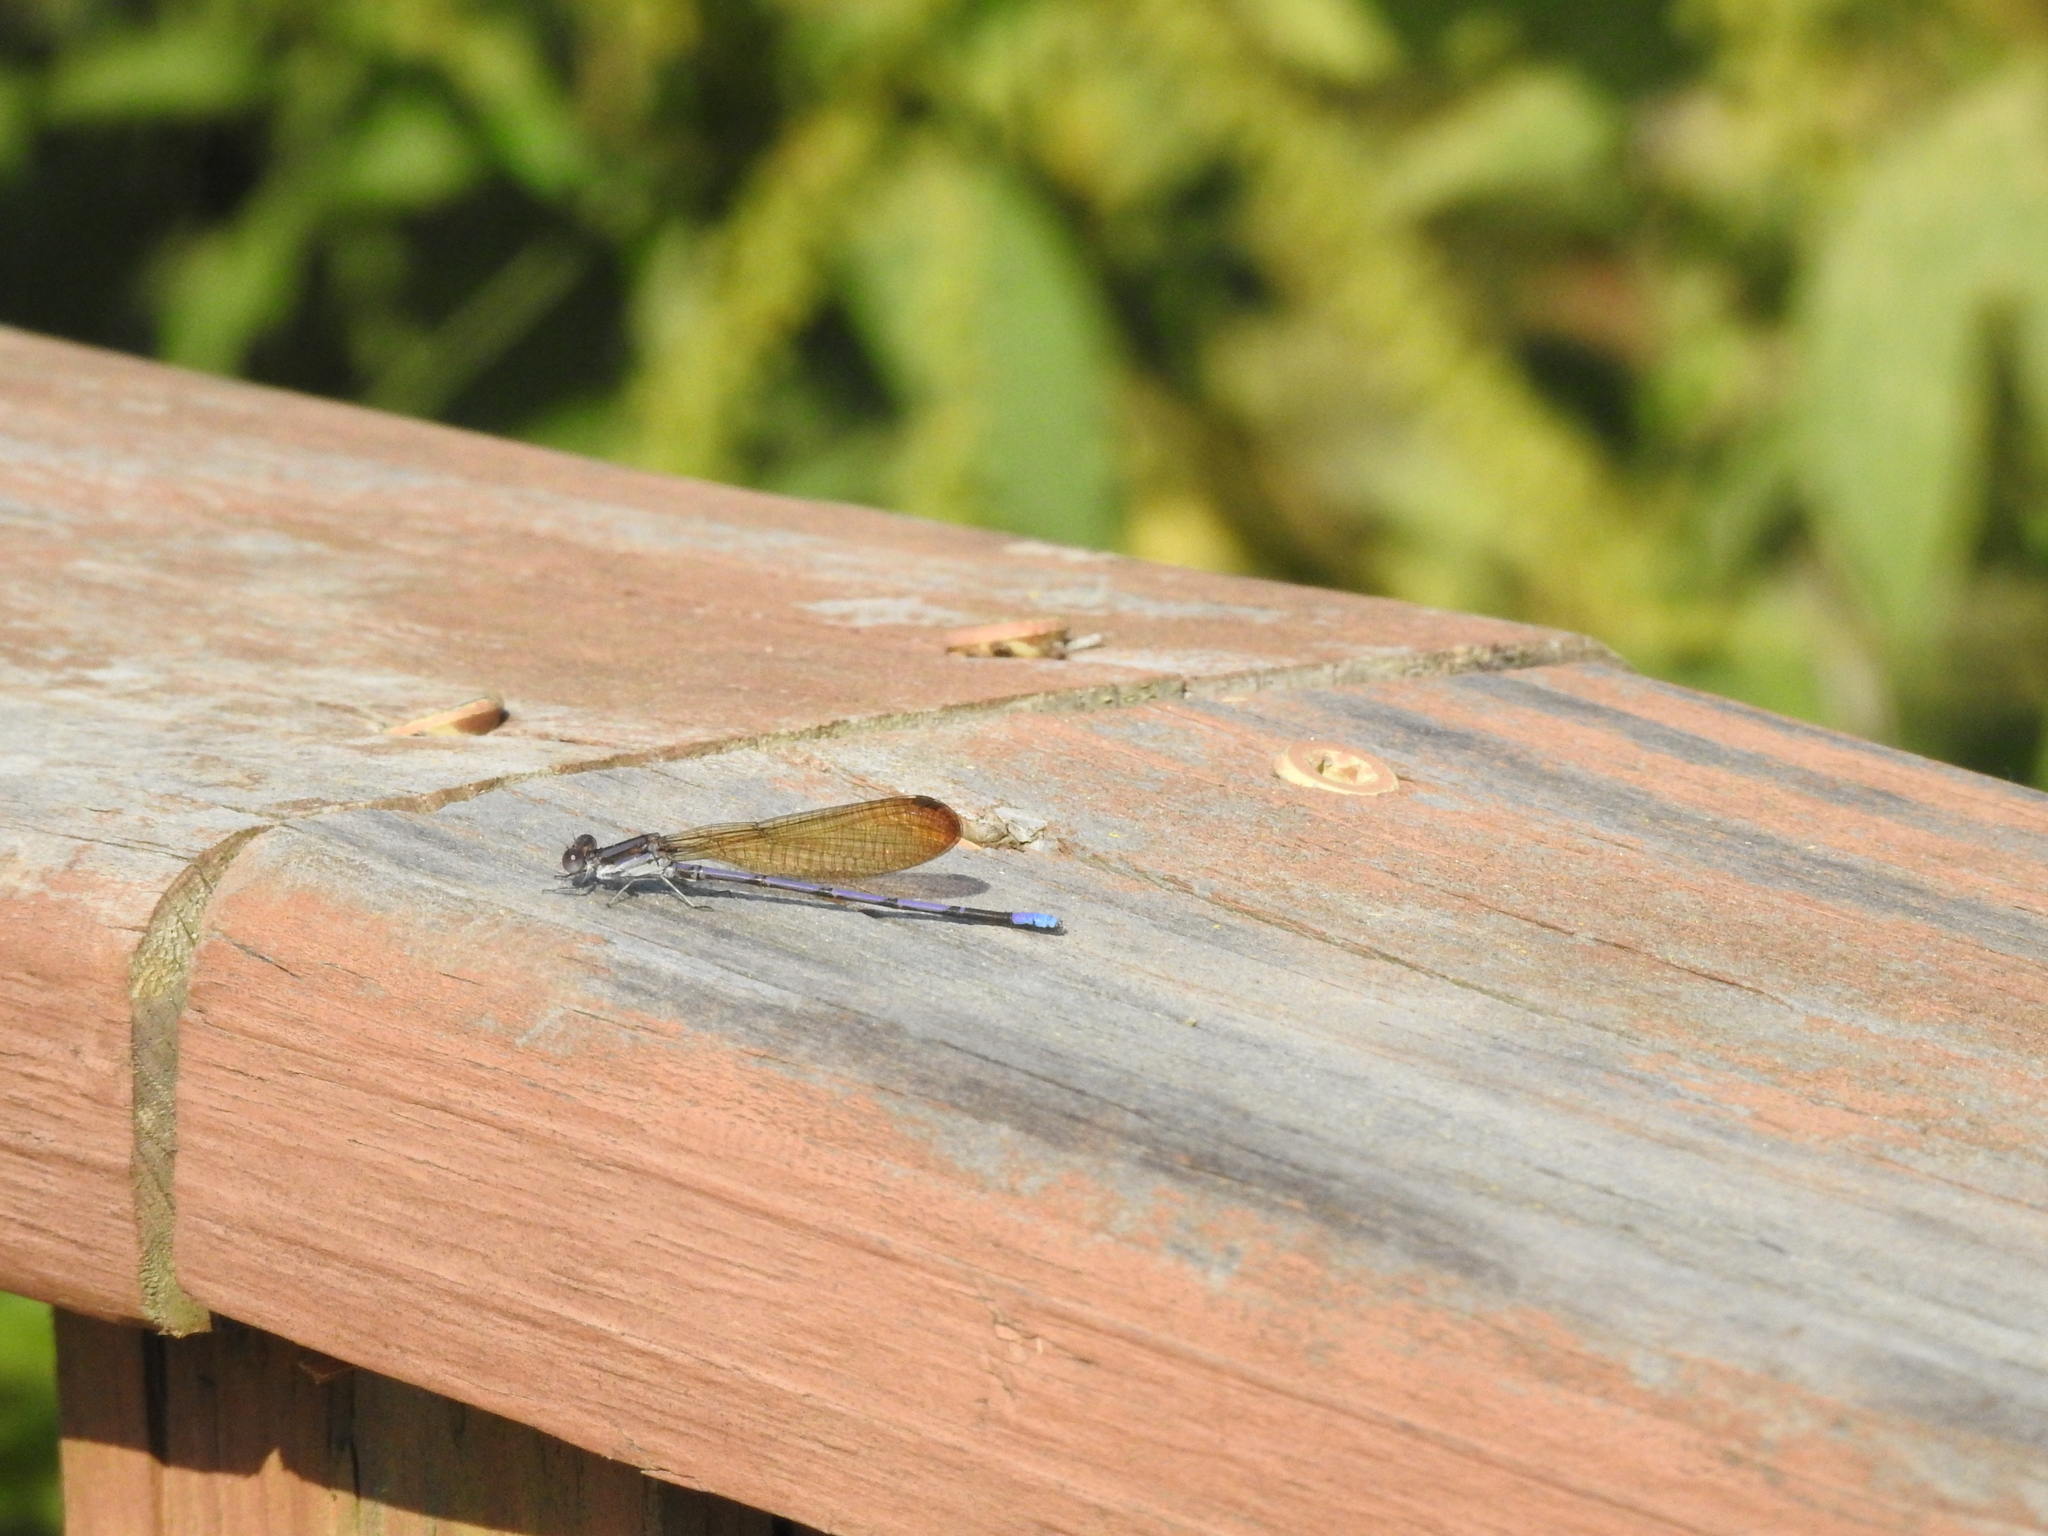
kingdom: Animalia
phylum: Arthropoda
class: Insecta
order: Odonata
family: Coenagrionidae
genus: Argia
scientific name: Argia fumipennis
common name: Variable dancer
